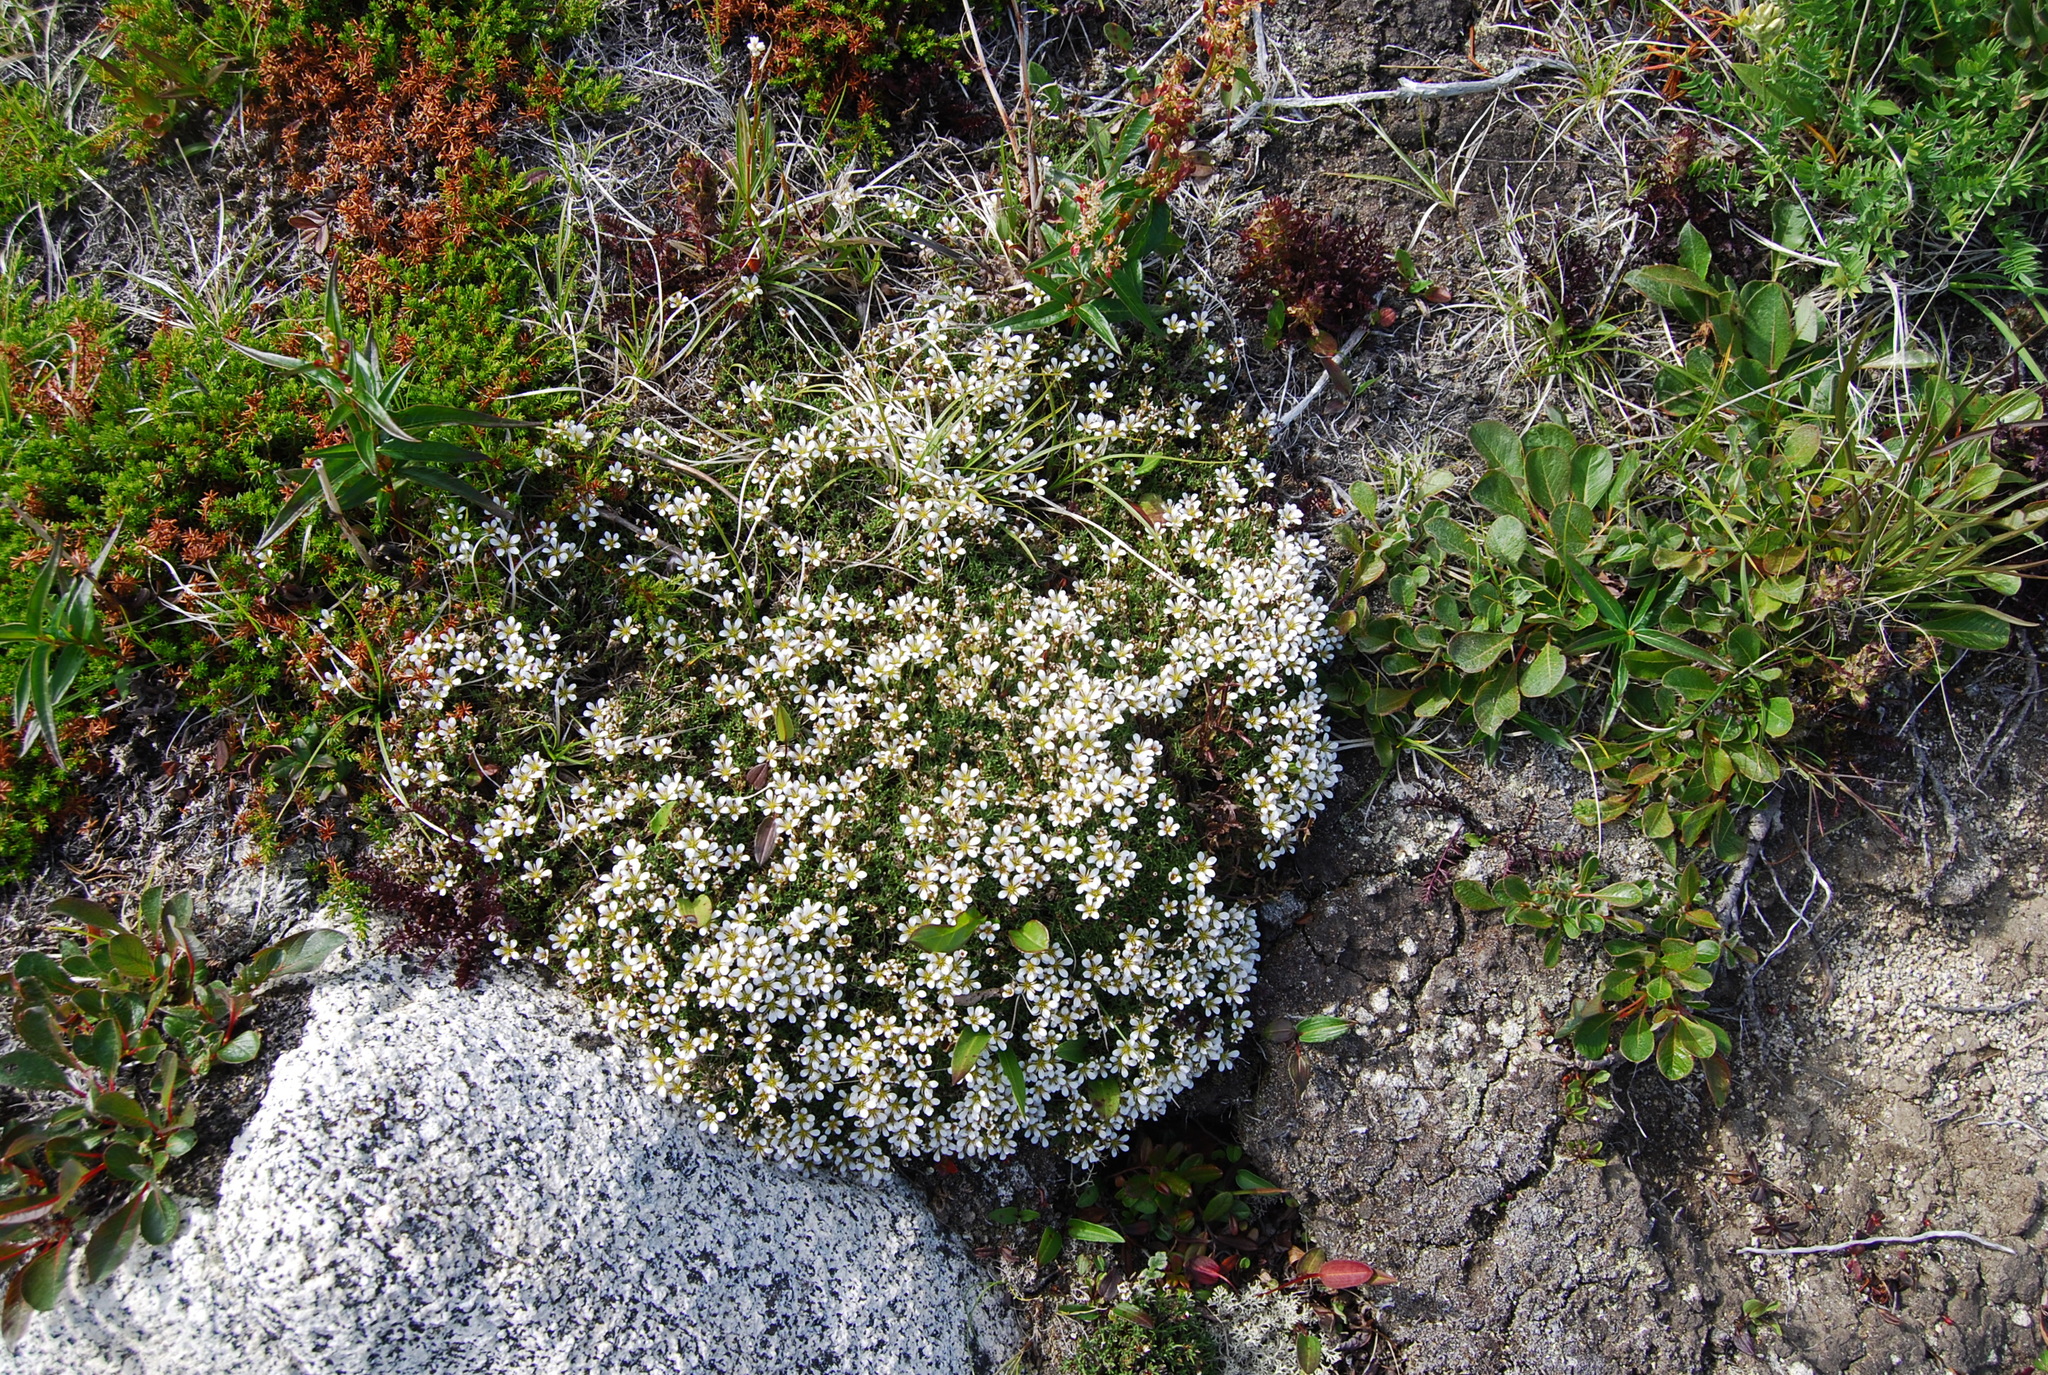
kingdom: Plantae
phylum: Tracheophyta
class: Magnoliopsida
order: Caryophyllales
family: Caryophyllaceae
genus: Cherleria
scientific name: Cherleria obtusiloba
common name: Alpine stitchwort
